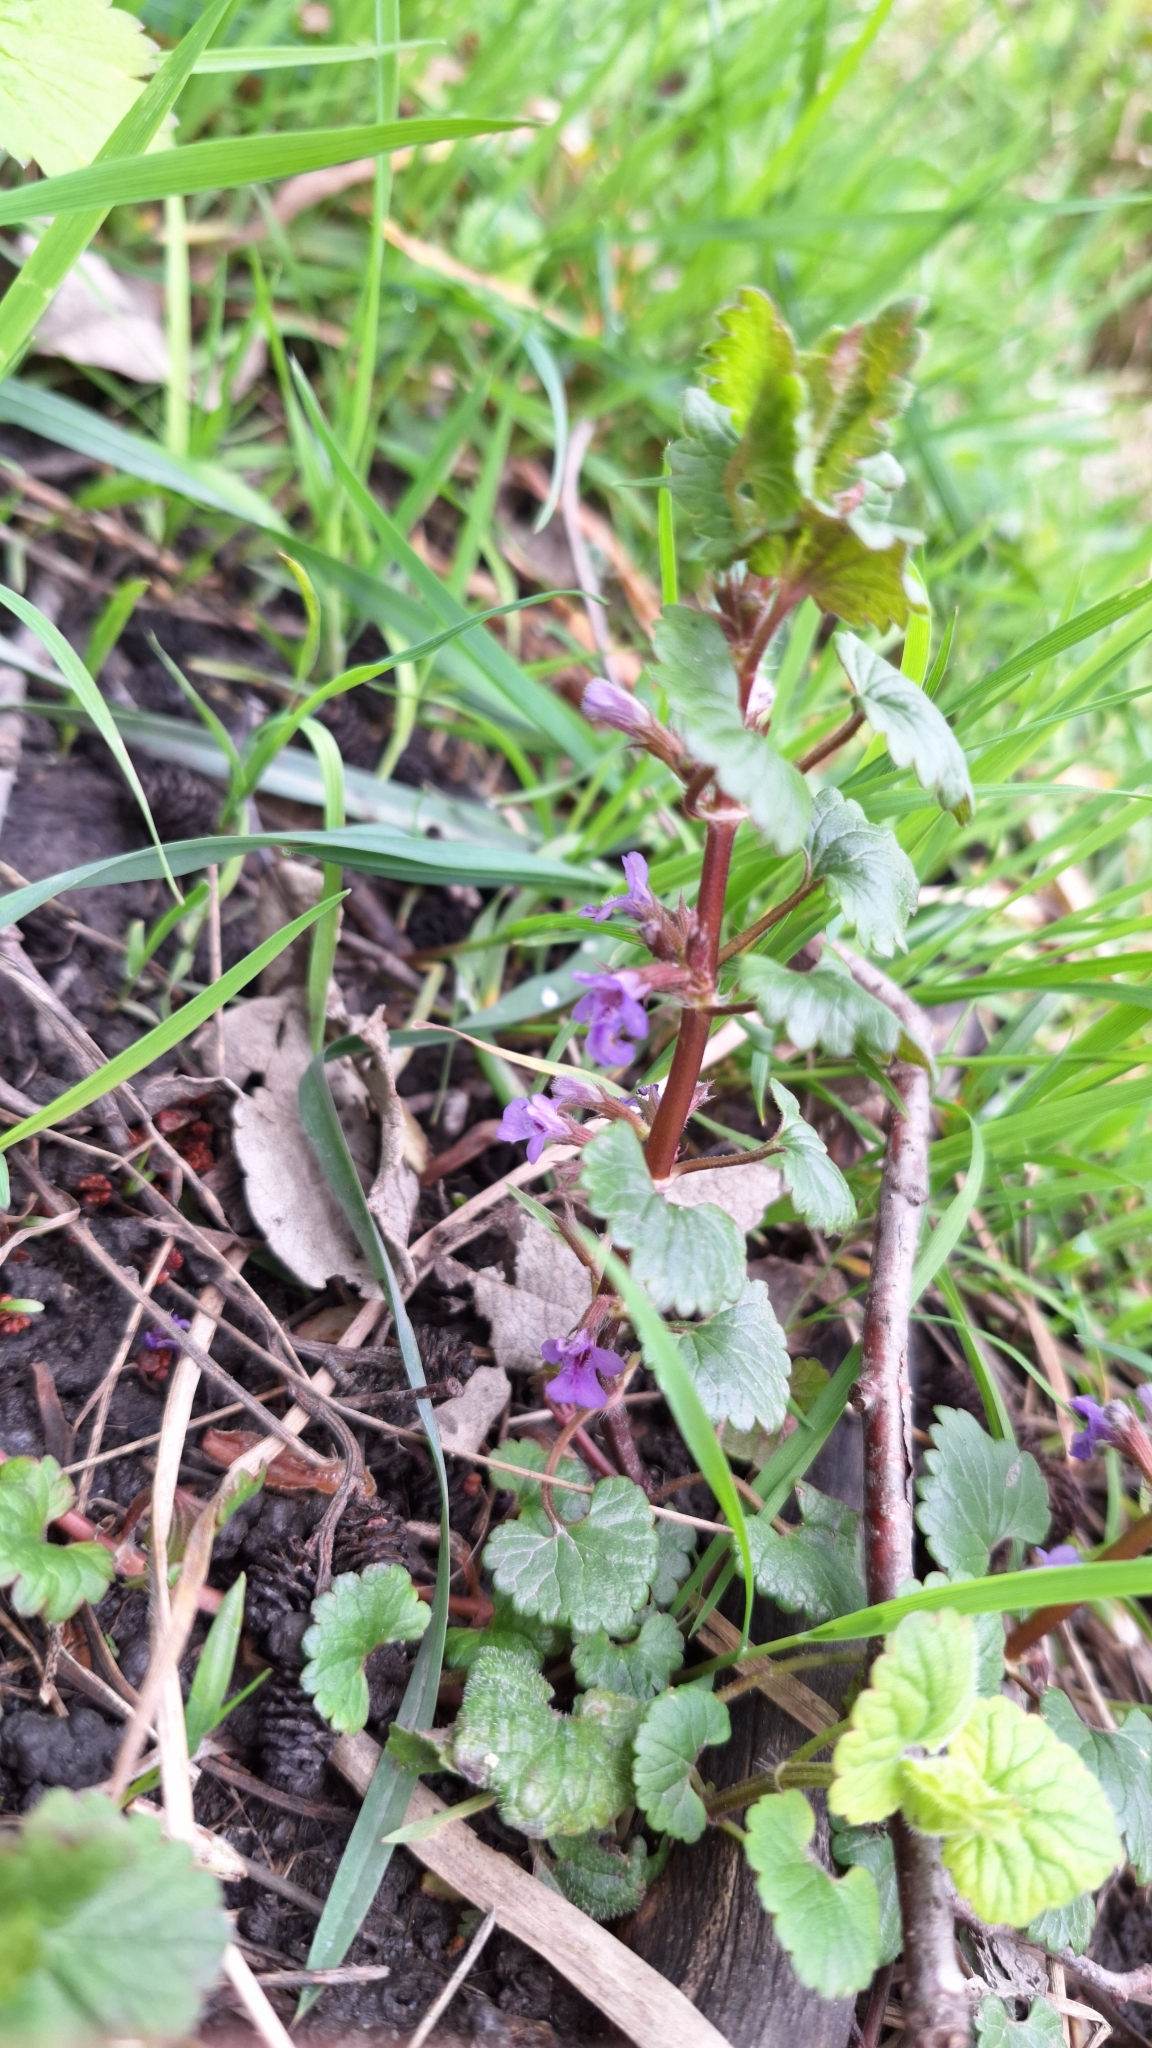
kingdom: Plantae
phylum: Tracheophyta
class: Magnoliopsida
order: Lamiales
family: Lamiaceae
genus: Glechoma
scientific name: Glechoma hederacea
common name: Ground ivy
